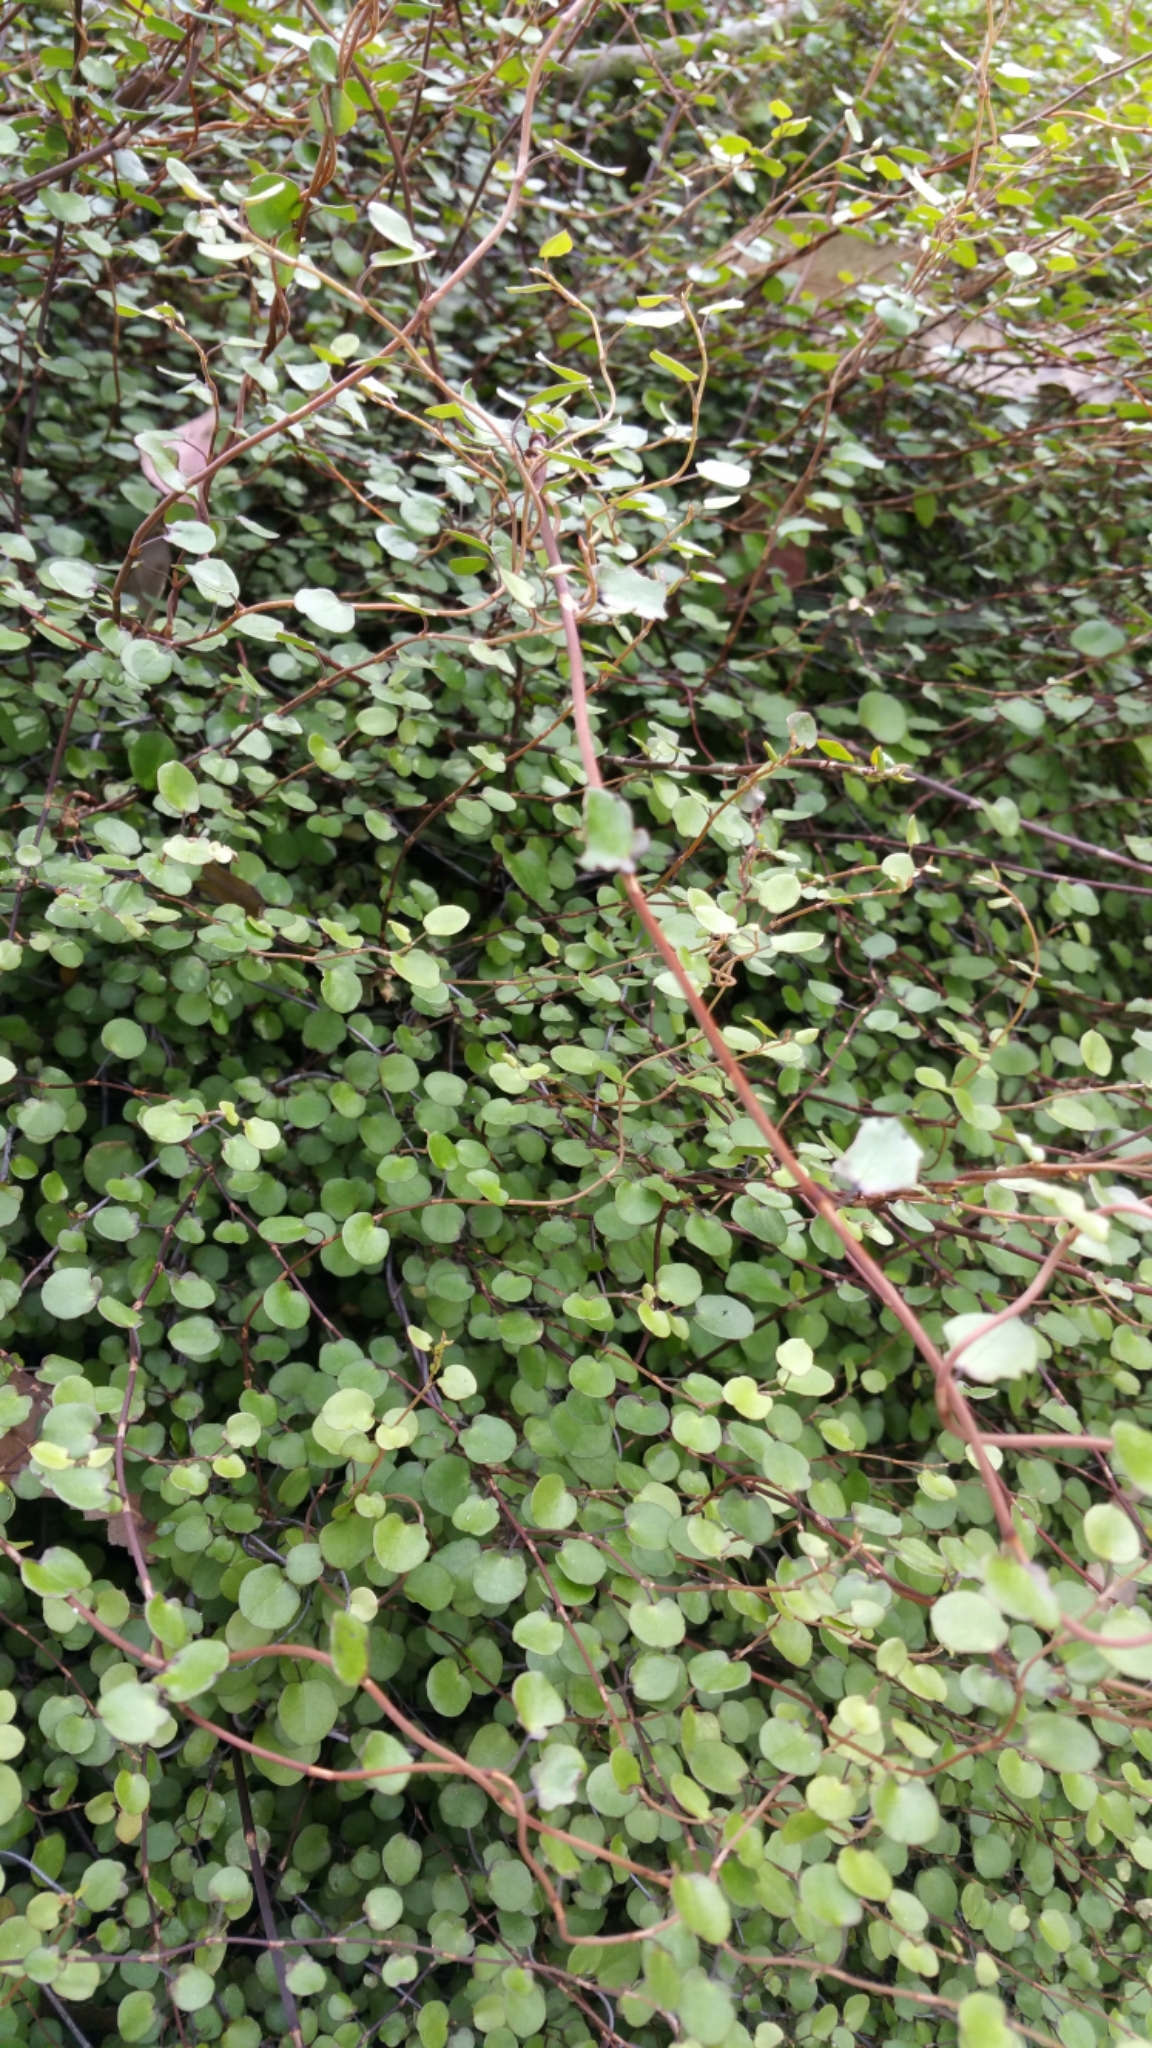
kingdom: Plantae
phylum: Tracheophyta
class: Magnoliopsida
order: Caryophyllales
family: Polygonaceae
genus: Muehlenbeckia
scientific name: Muehlenbeckia complexa
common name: Wireplant
